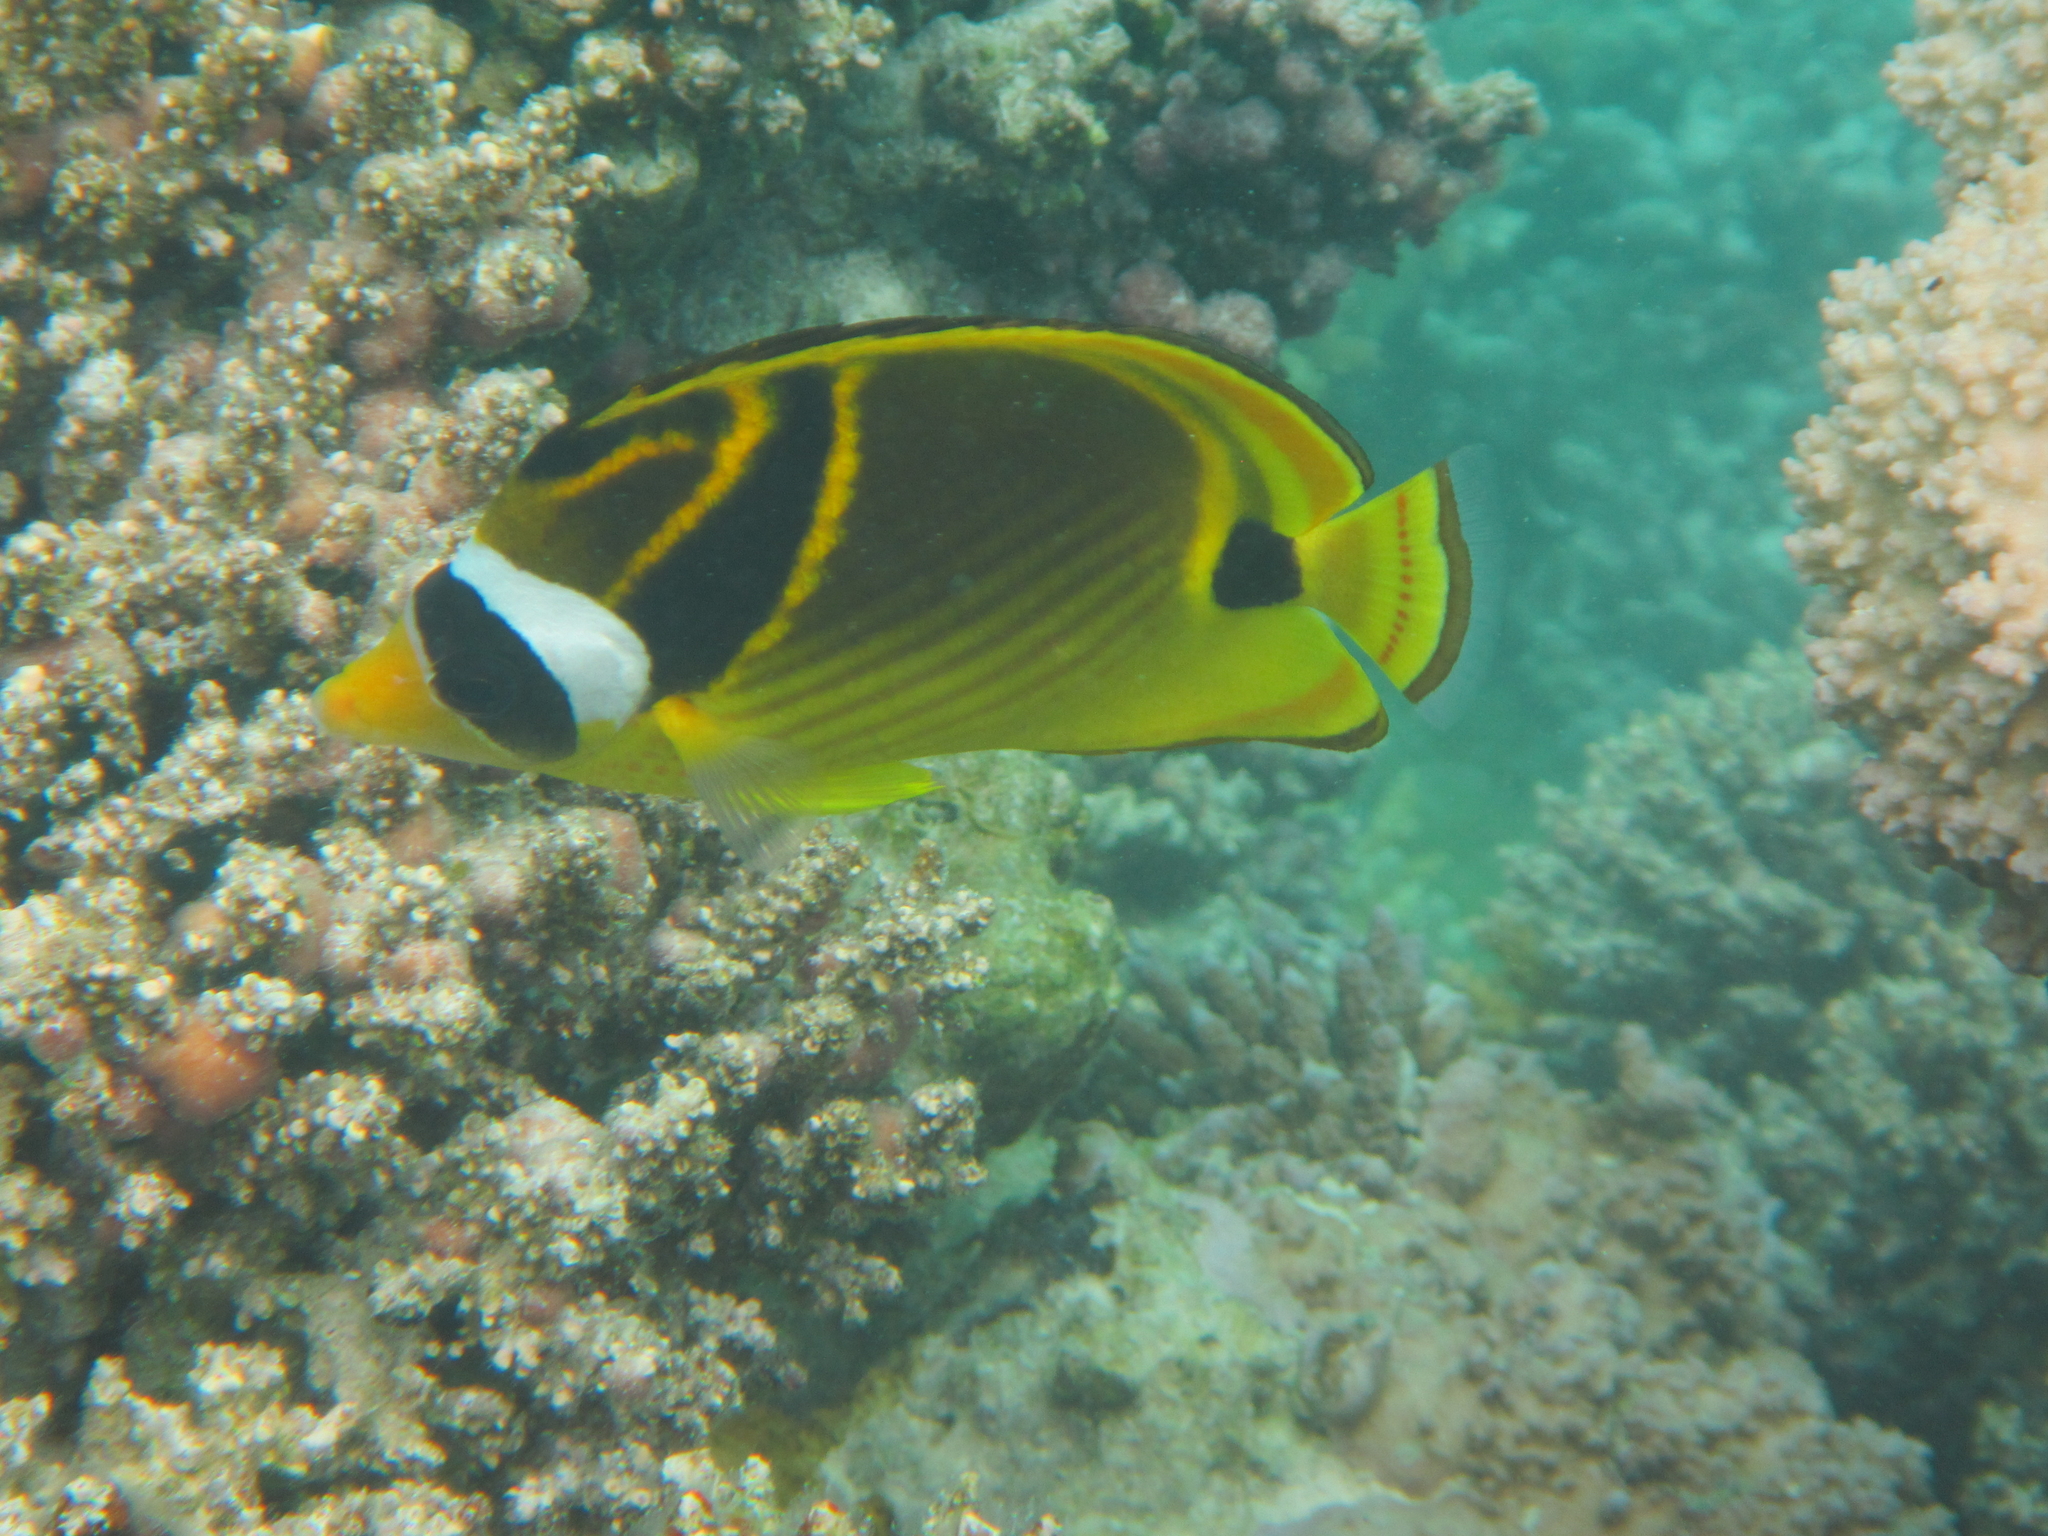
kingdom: Animalia
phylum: Chordata
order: Perciformes
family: Chaetodontidae
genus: Chaetodon
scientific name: Chaetodon lunula
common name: Raccoon butterflyfish
